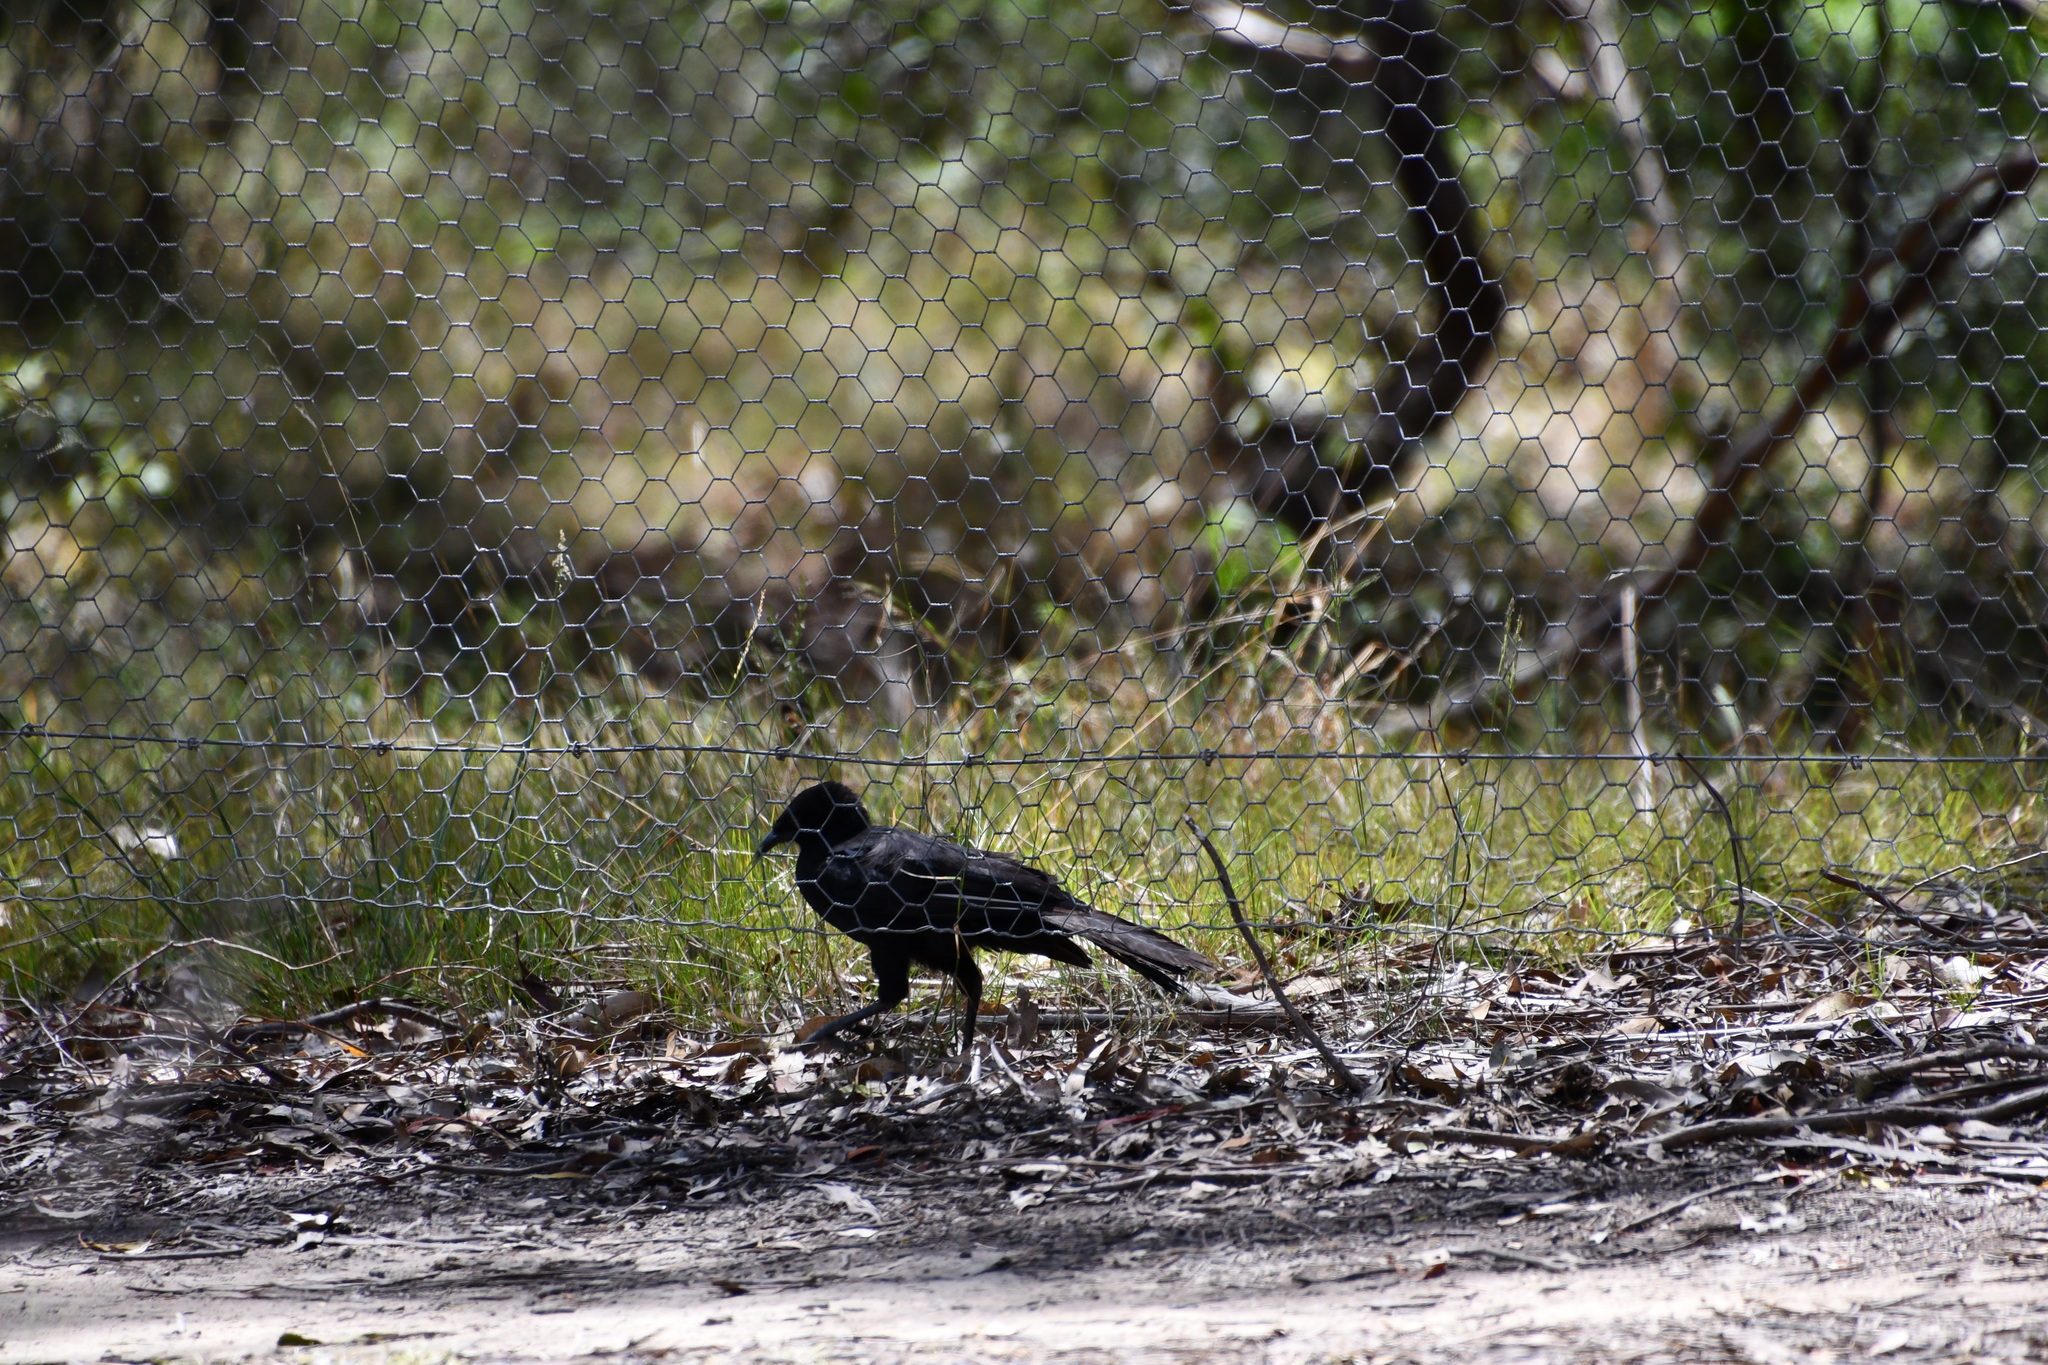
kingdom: Animalia
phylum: Chordata
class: Aves
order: Passeriformes
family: Corcoracidae
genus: Corcorax
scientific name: Corcorax melanoramphos
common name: White-winged chough
